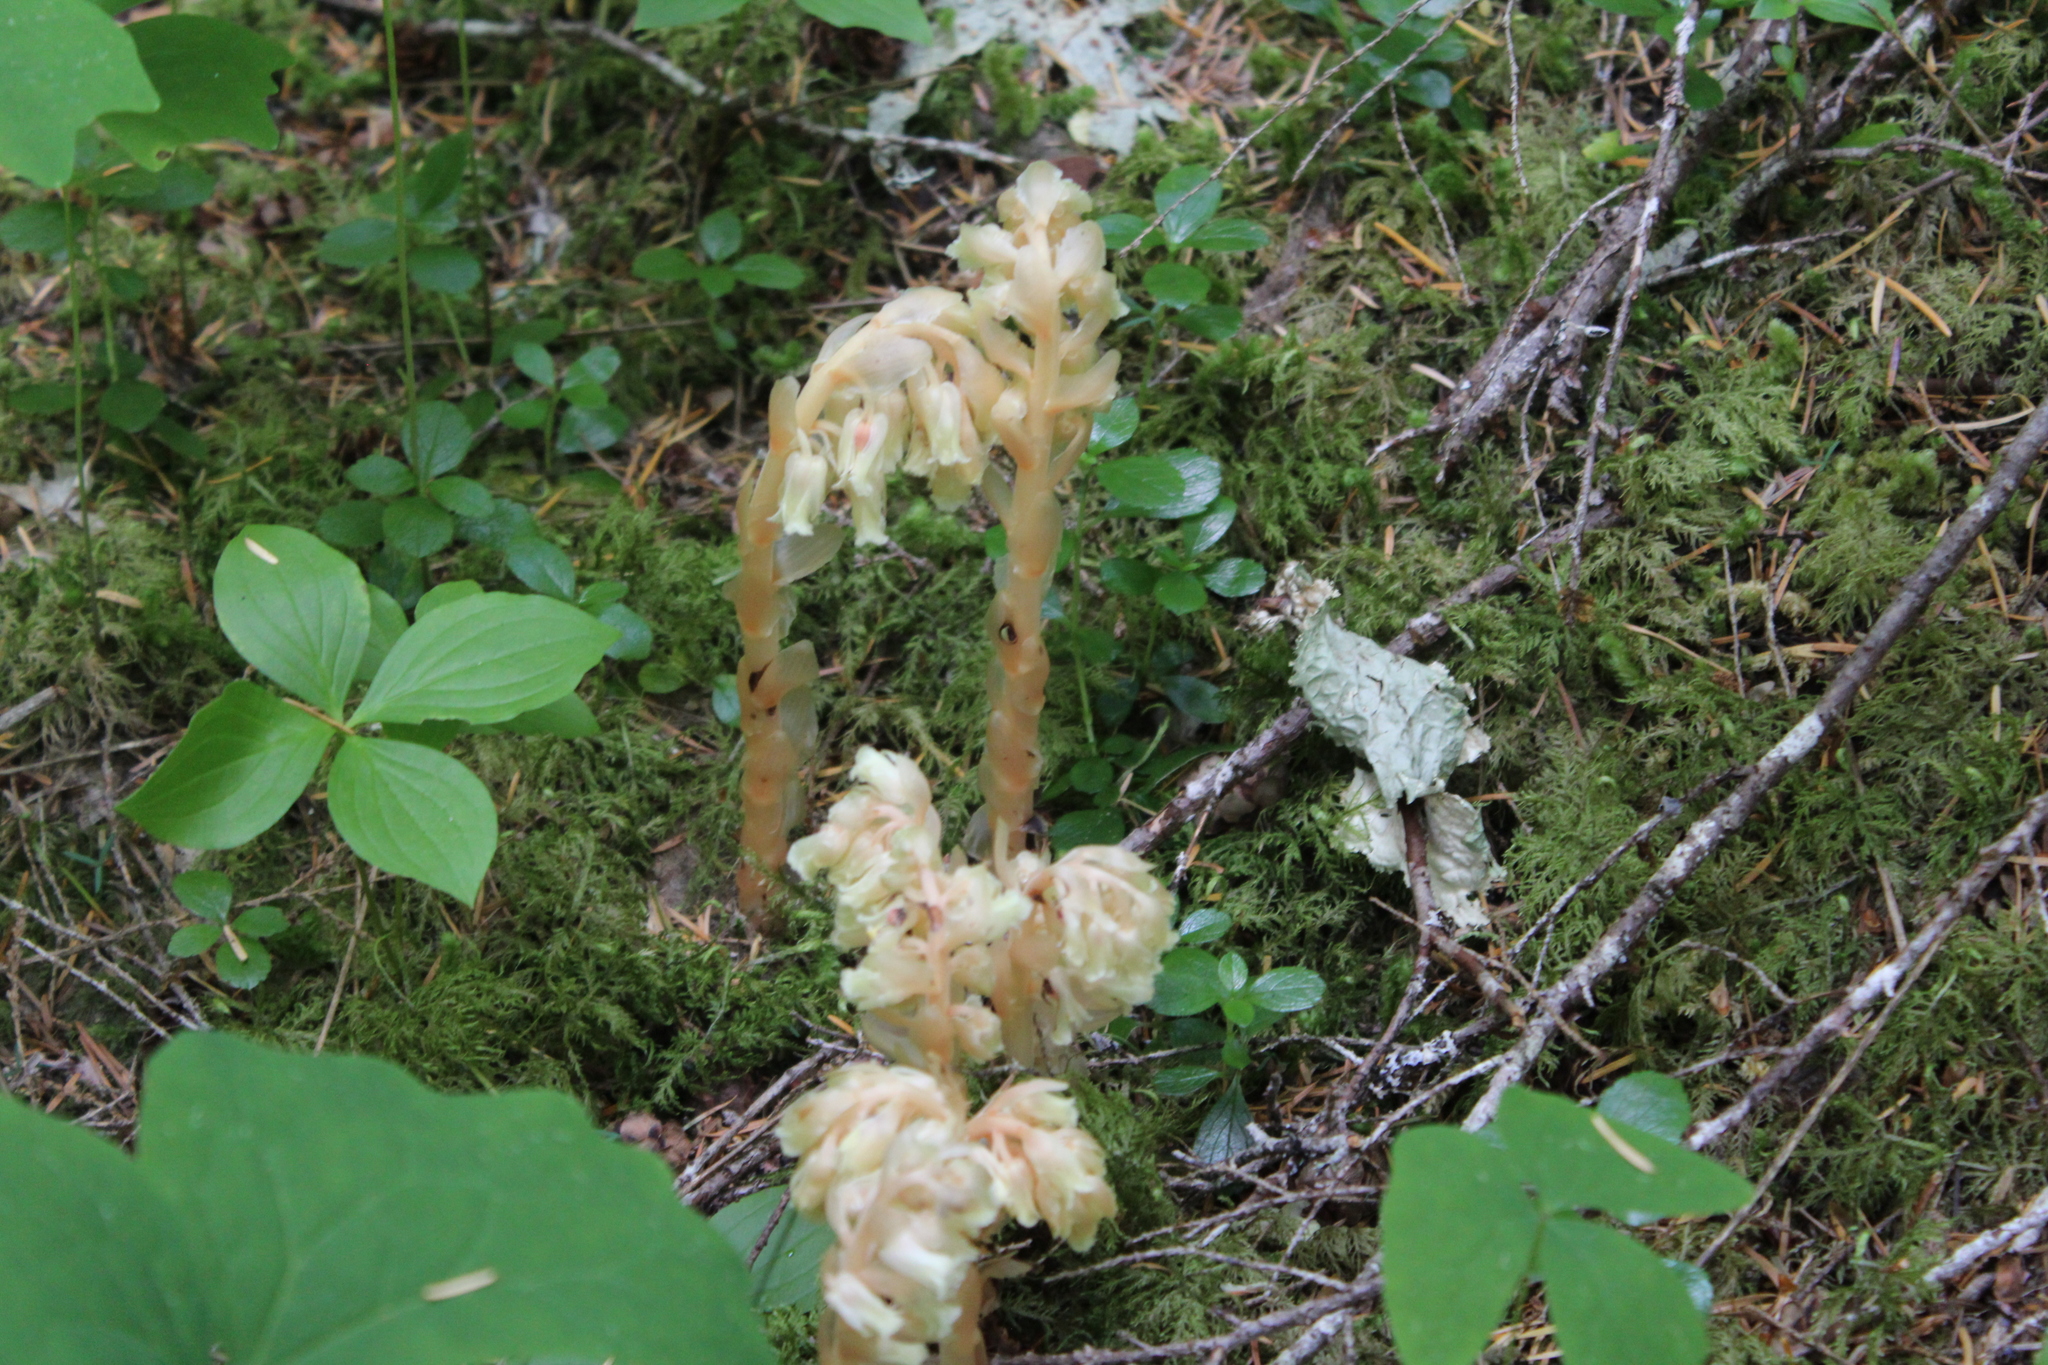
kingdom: Plantae
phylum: Tracheophyta
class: Magnoliopsida
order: Ericales
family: Ericaceae
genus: Hypopitys
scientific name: Hypopitys monotropa
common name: Yellow bird's-nest
